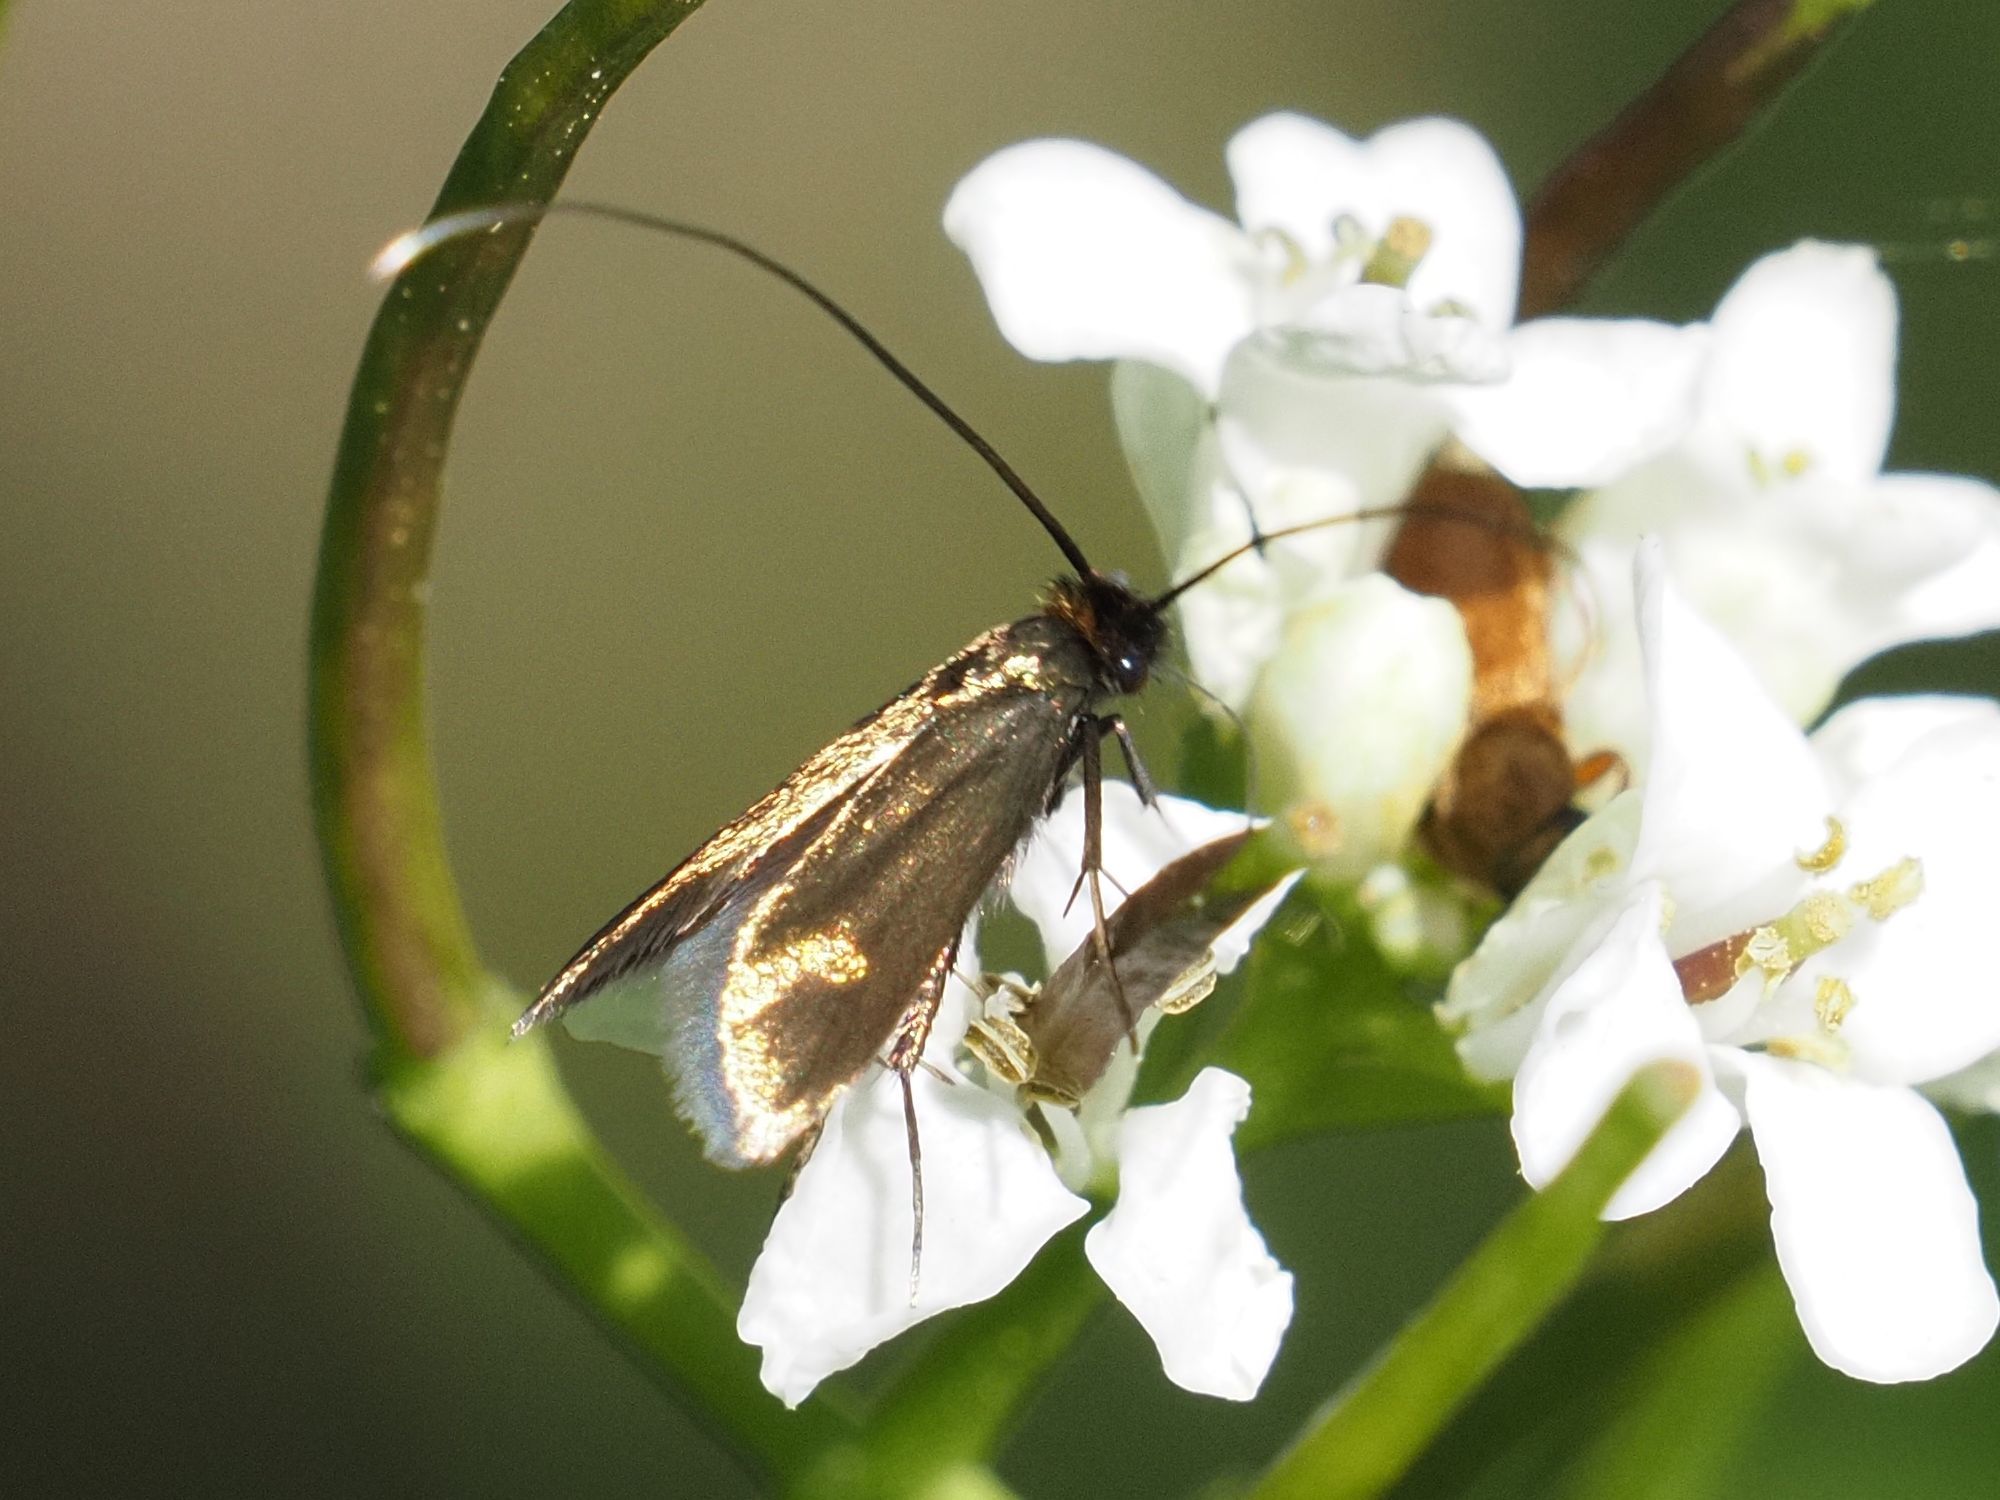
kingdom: Animalia
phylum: Arthropoda
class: Insecta
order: Lepidoptera
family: Adelidae
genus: Cauchas
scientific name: Cauchas rufimitrella
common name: Meadow long-horn
